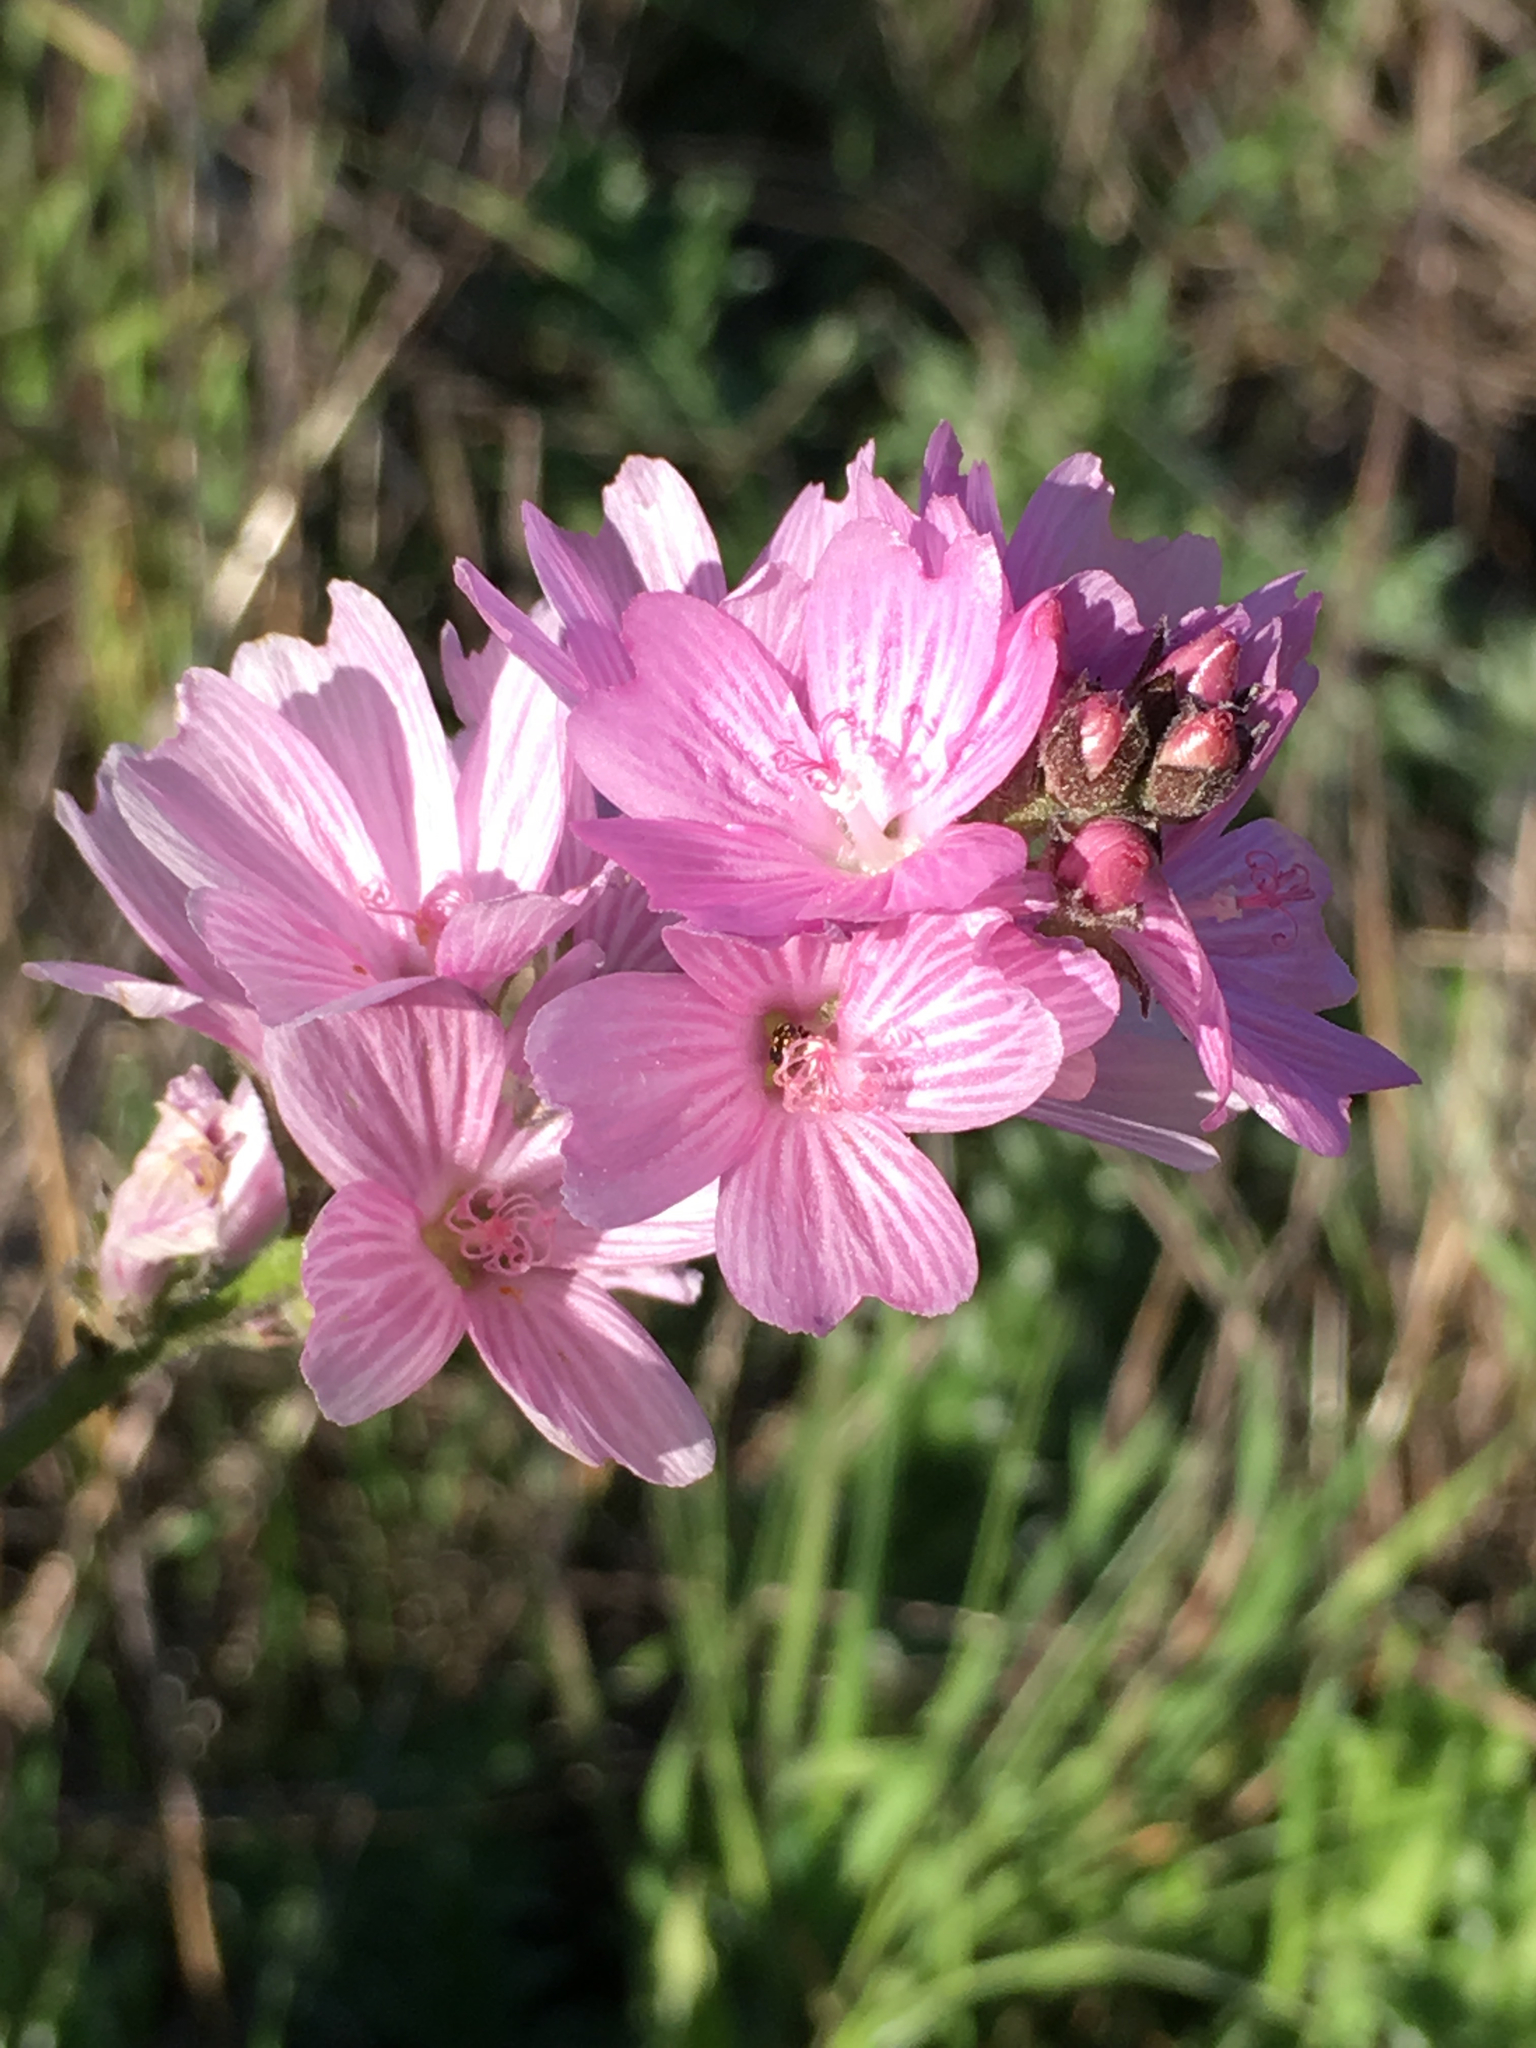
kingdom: Plantae
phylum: Tracheophyta
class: Magnoliopsida
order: Malvales
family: Malvaceae
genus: Sidalcea
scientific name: Sidalcea malviflora
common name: Greek mallow
